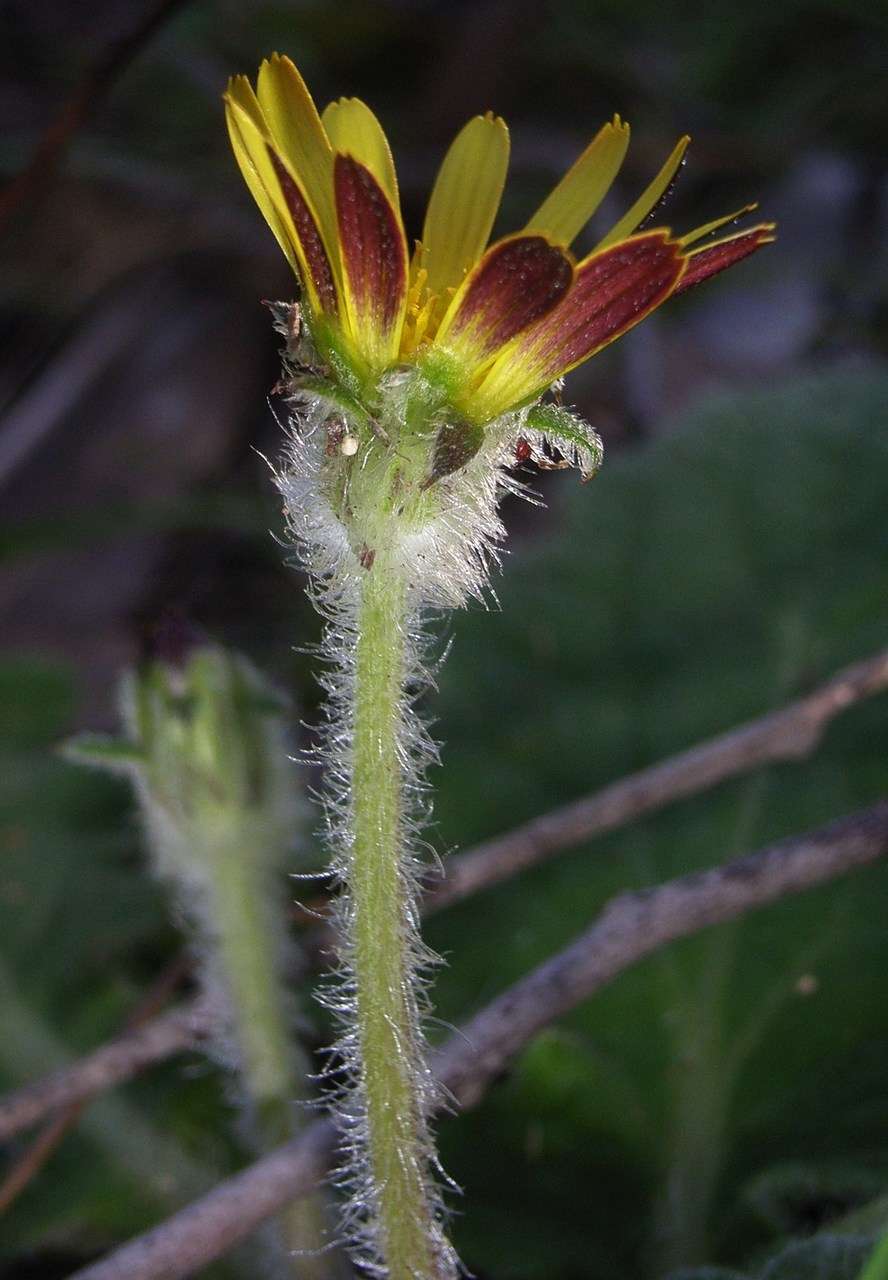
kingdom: Plantae
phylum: Tracheophyta
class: Magnoliopsida
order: Asterales
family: Asteraceae
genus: Cymbonotus
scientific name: Cymbonotus preissianus
